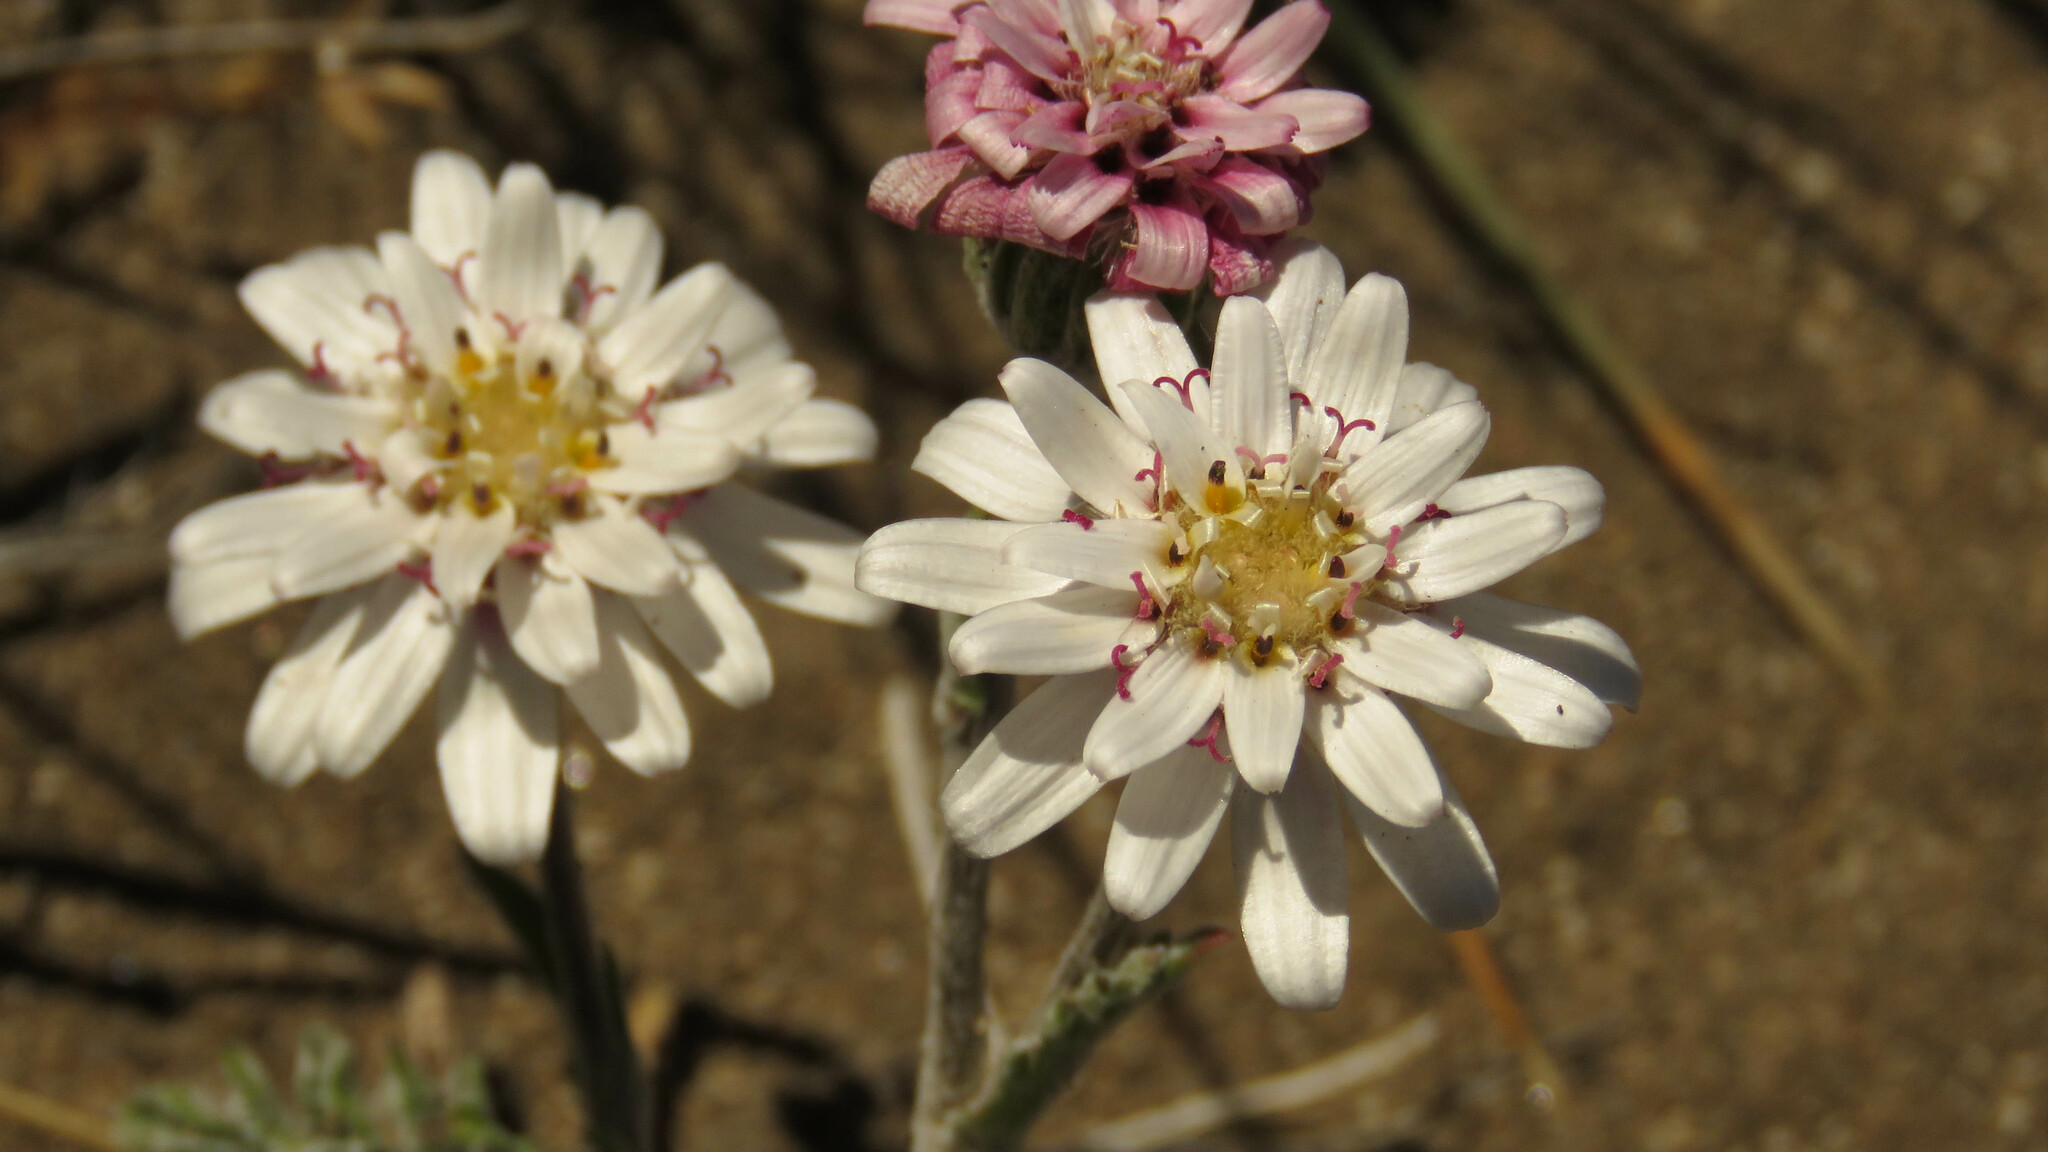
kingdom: Plantae
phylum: Tracheophyta
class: Magnoliopsida
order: Asterales
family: Asteraceae
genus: Leucheria
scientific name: Leucheria millefolium
